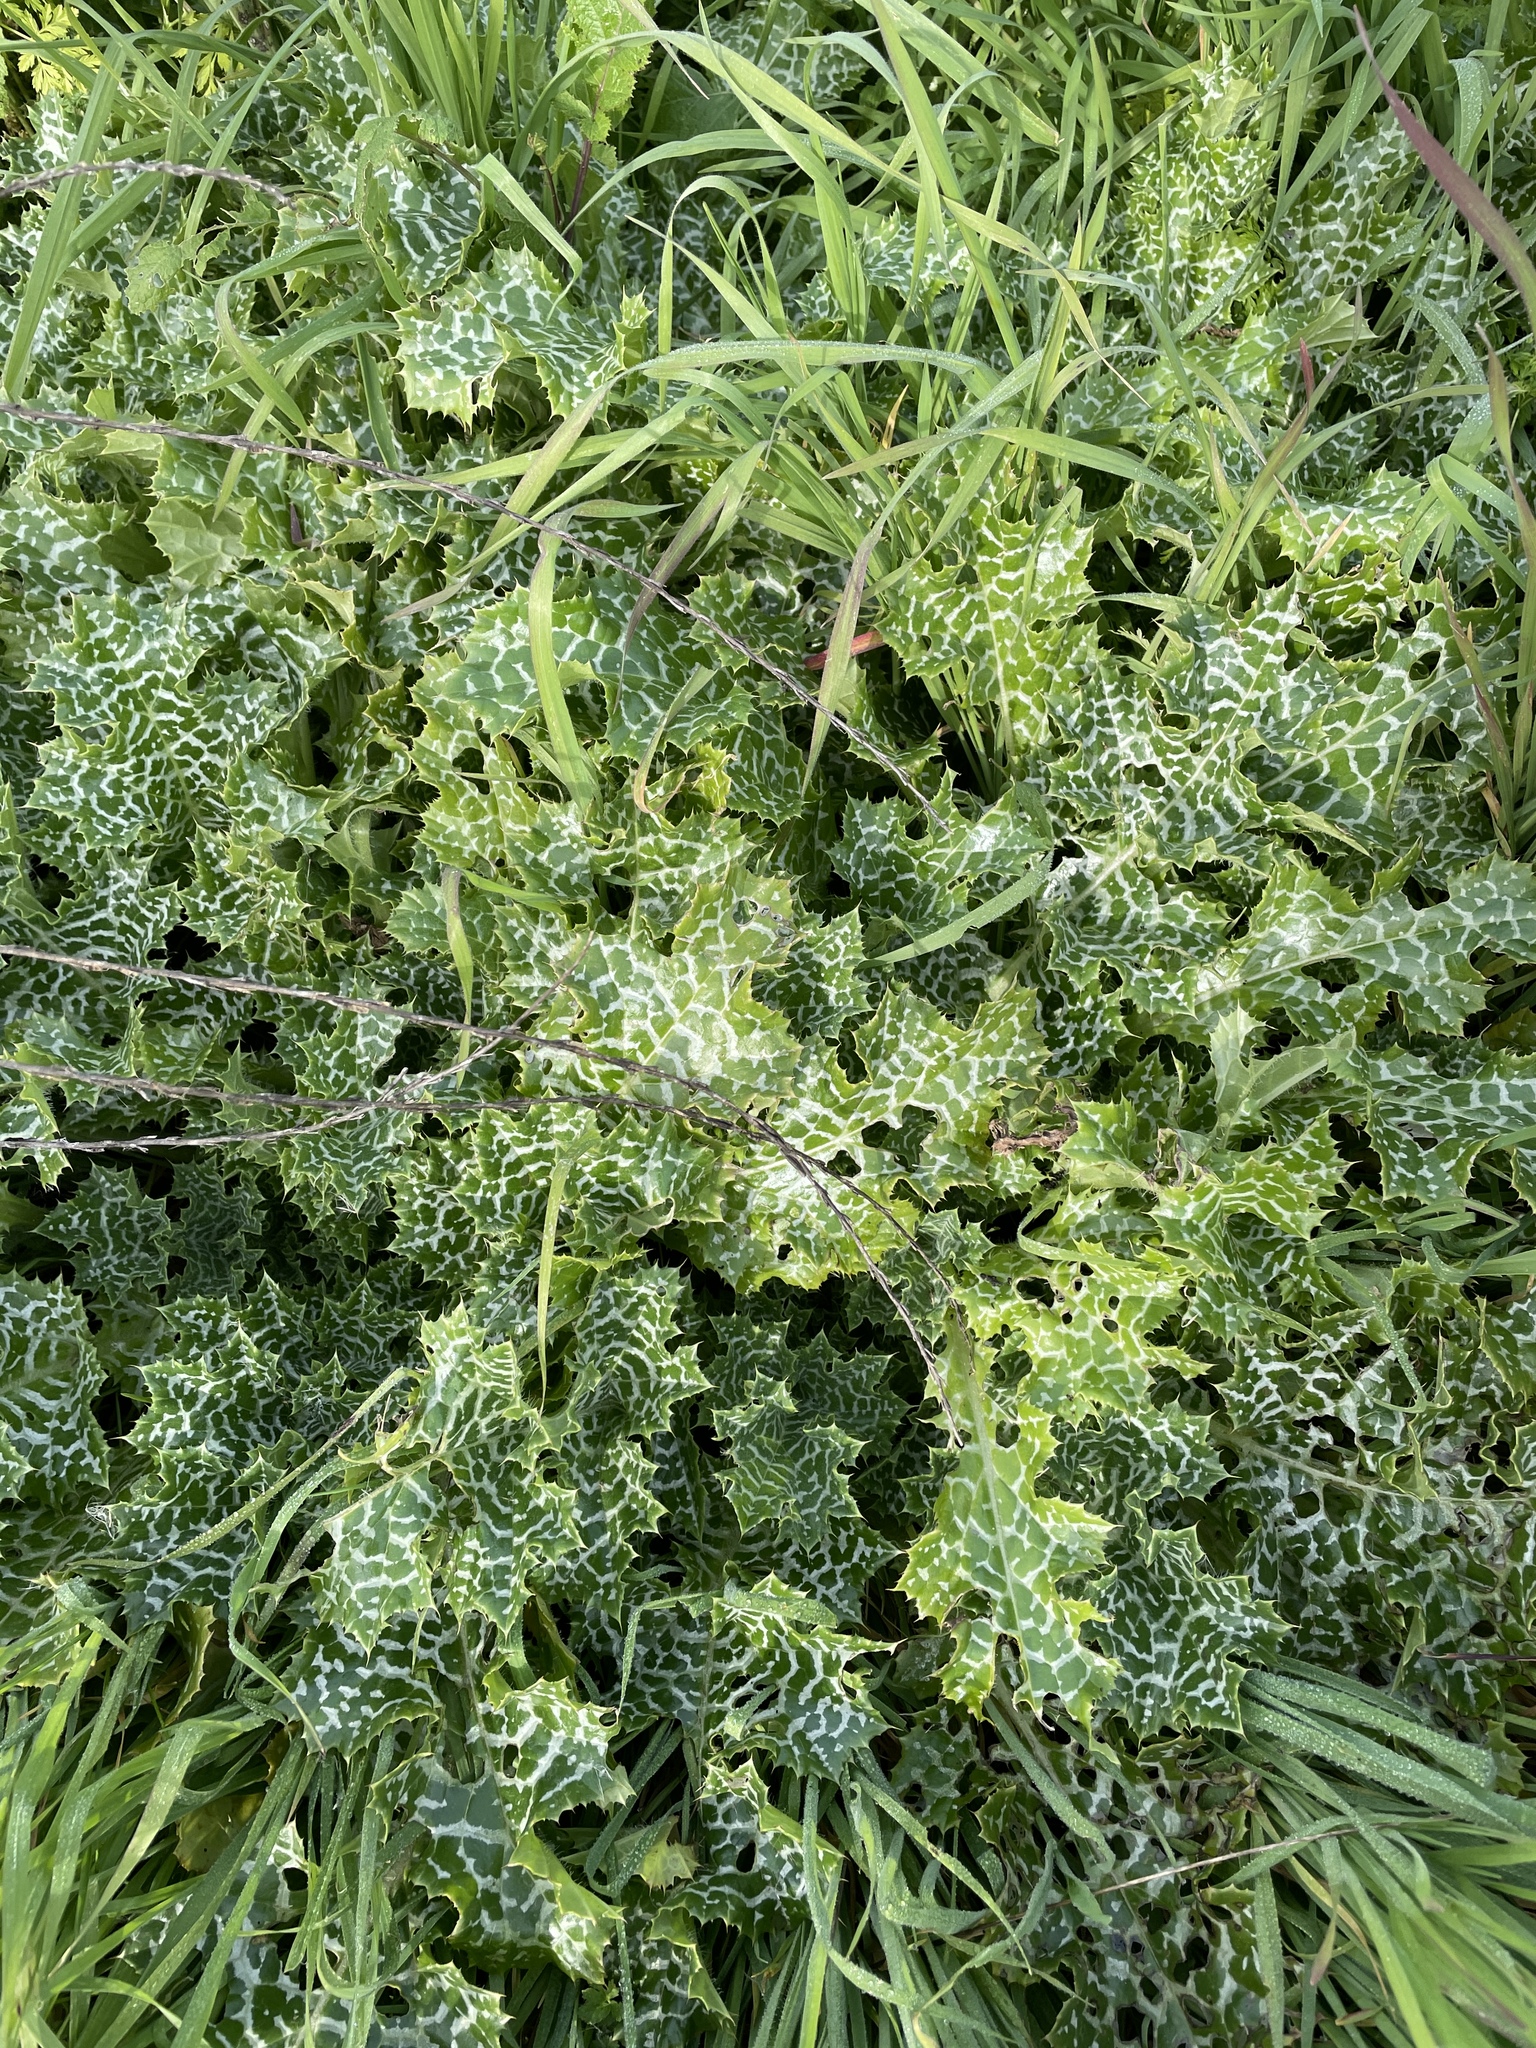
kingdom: Plantae
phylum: Tracheophyta
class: Magnoliopsida
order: Asterales
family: Asteraceae
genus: Silybum
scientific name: Silybum marianum
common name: Milk thistle
